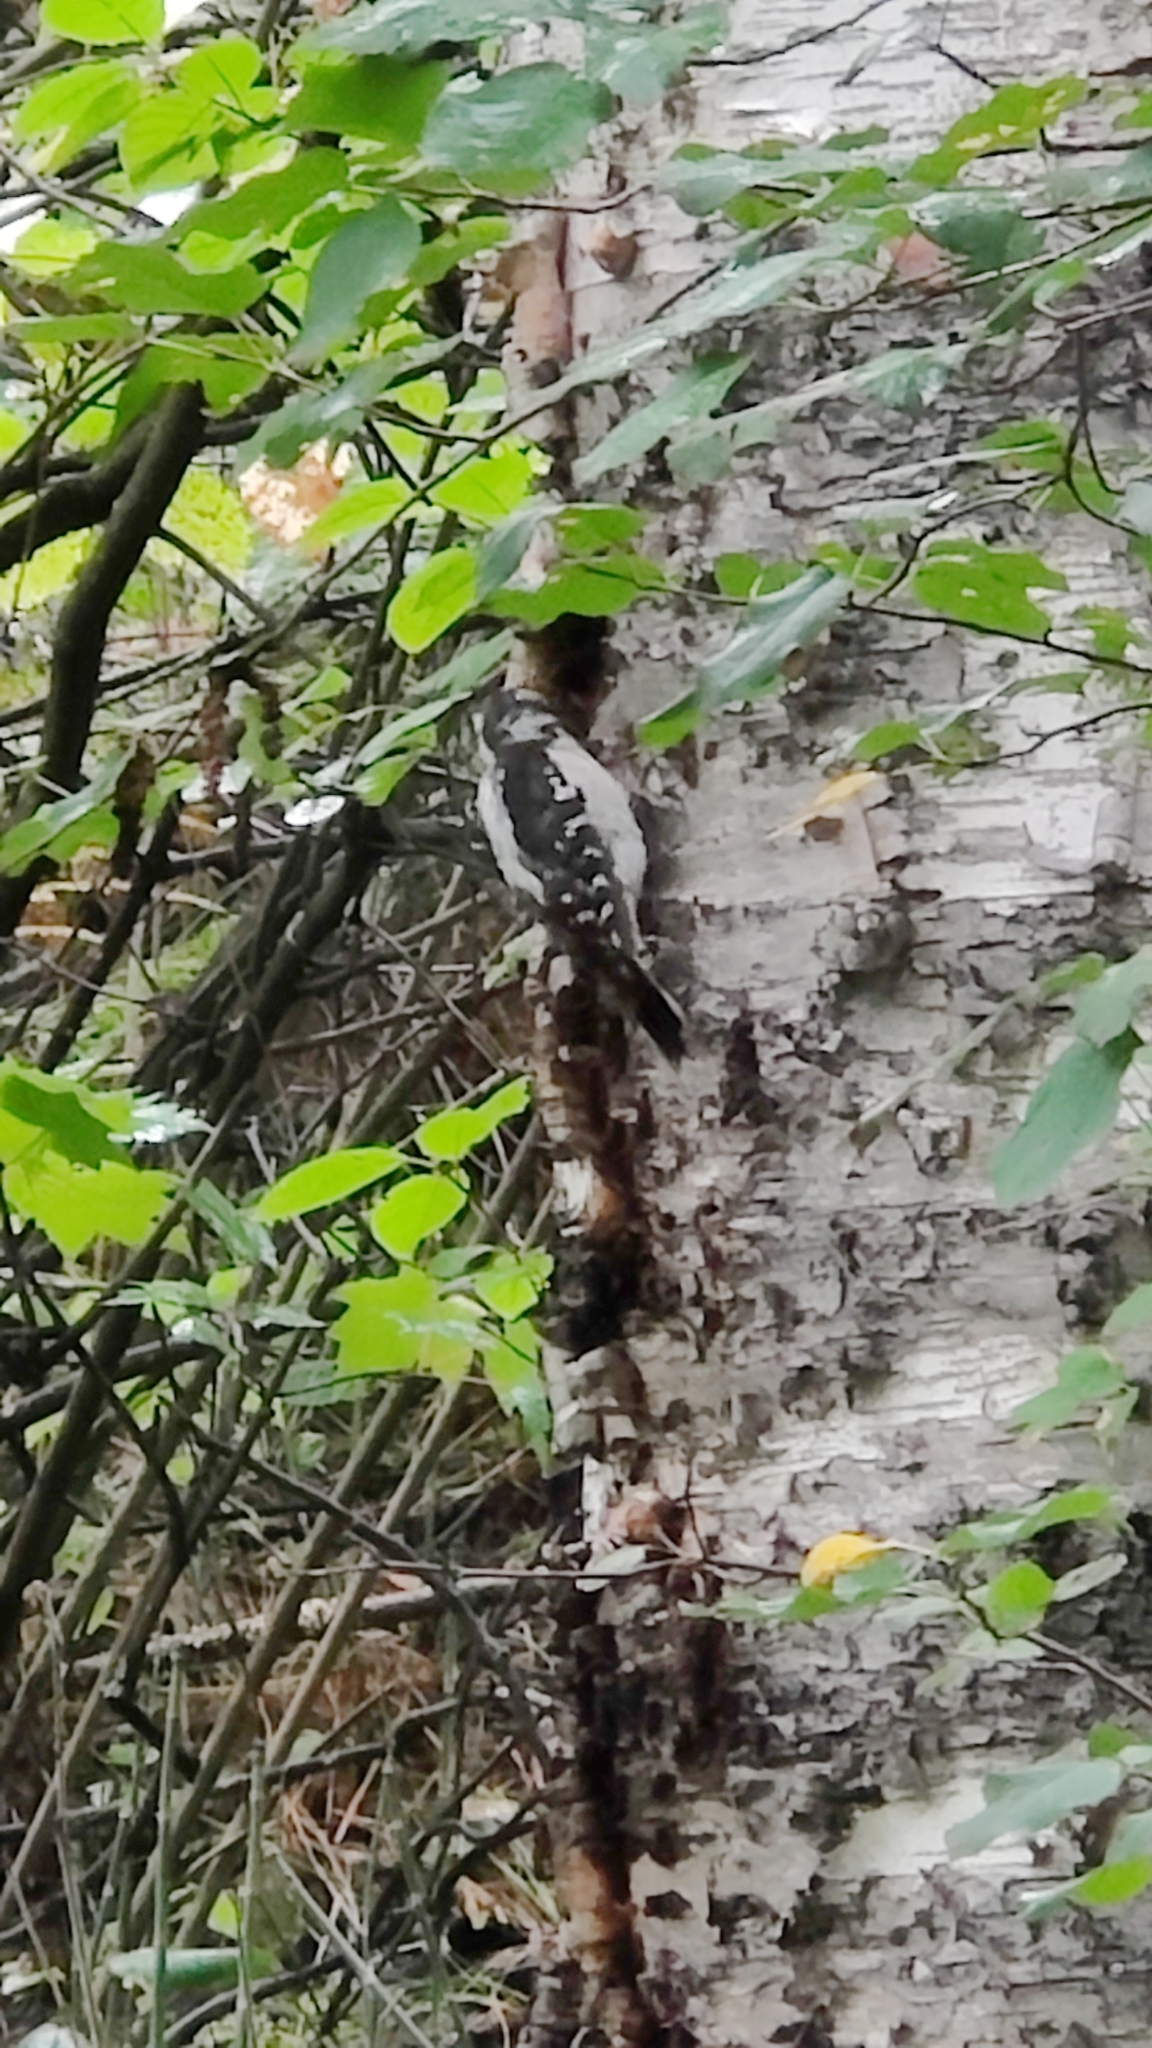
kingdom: Animalia
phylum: Chordata
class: Aves
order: Piciformes
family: Picidae
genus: Dryobates
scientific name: Dryobates pubescens
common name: Downy woodpecker
